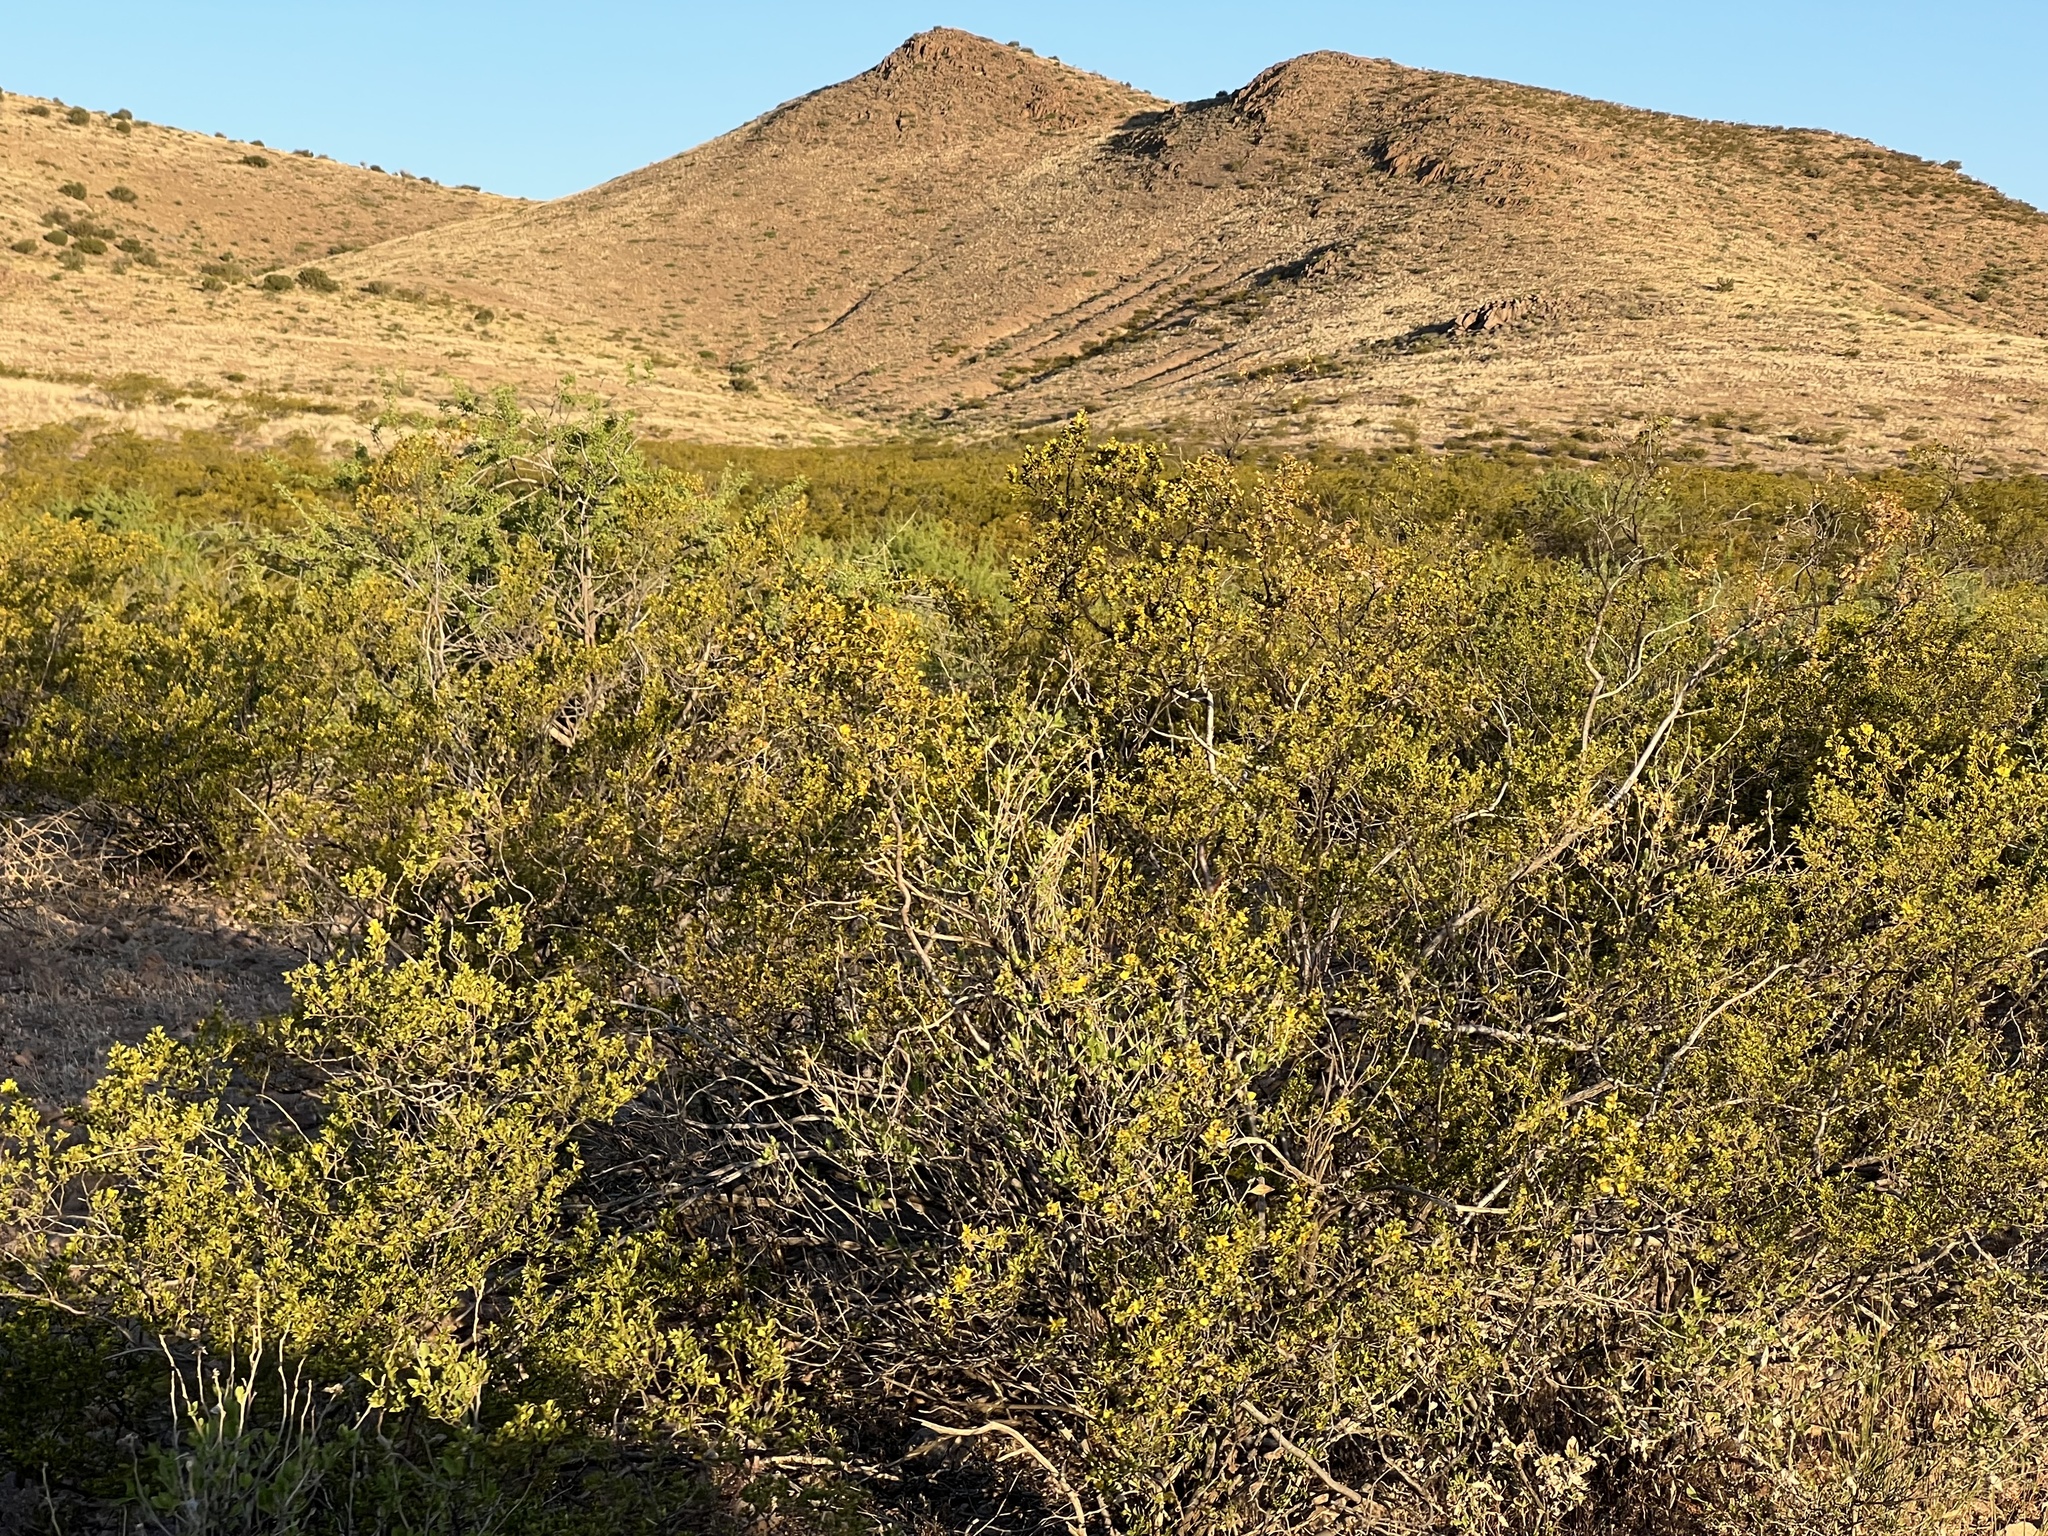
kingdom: Plantae
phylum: Tracheophyta
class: Magnoliopsida
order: Zygophyllales
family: Zygophyllaceae
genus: Larrea
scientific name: Larrea tridentata
